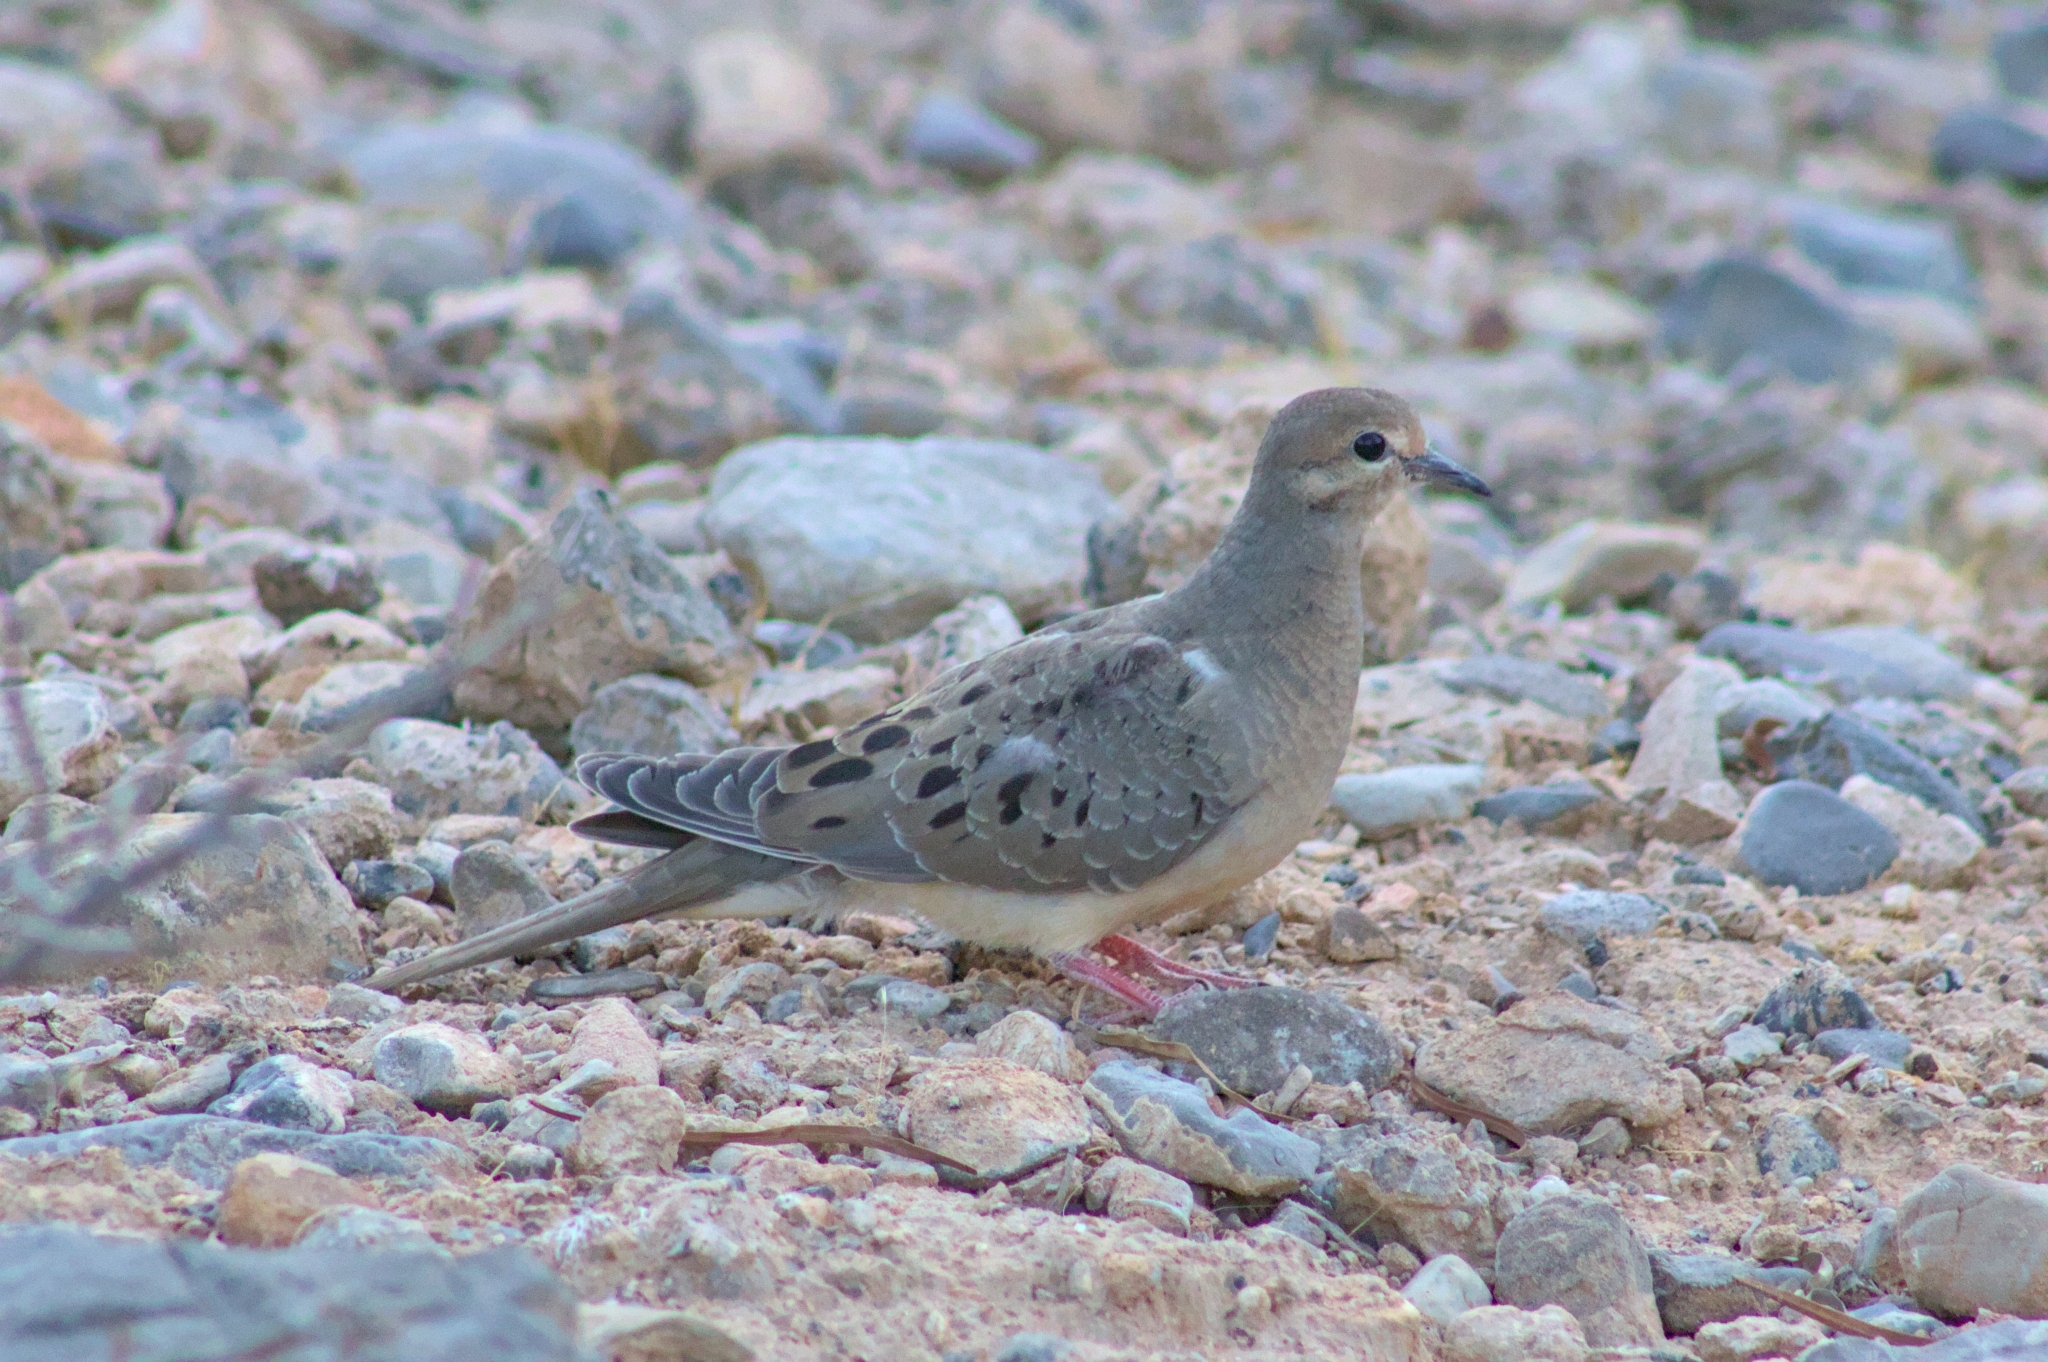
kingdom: Animalia
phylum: Chordata
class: Aves
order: Columbiformes
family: Columbidae
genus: Zenaida
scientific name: Zenaida macroura
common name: Mourning dove
